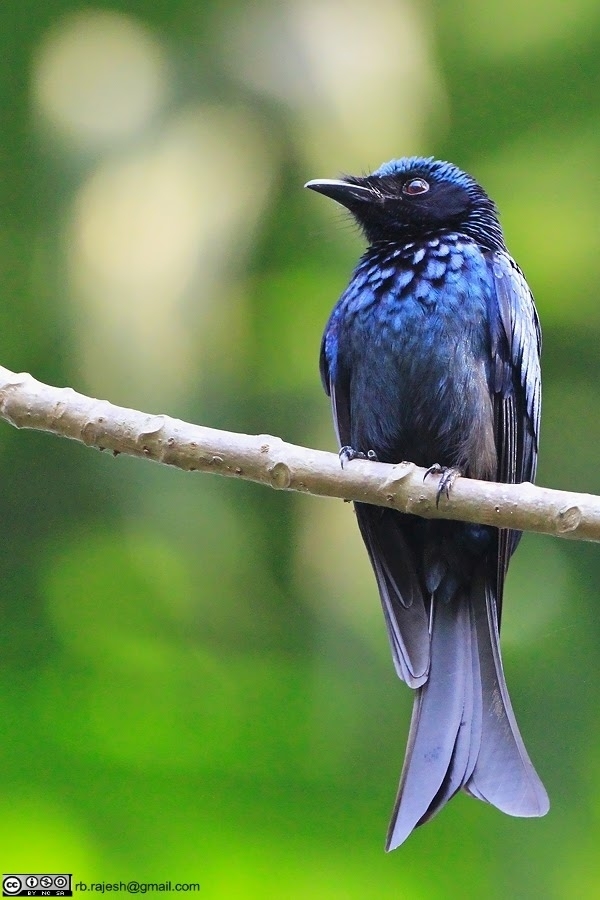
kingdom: Animalia
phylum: Chordata
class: Aves
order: Passeriformes
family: Dicruridae
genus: Dicrurus
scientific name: Dicrurus aeneus
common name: Bronzed drongo
